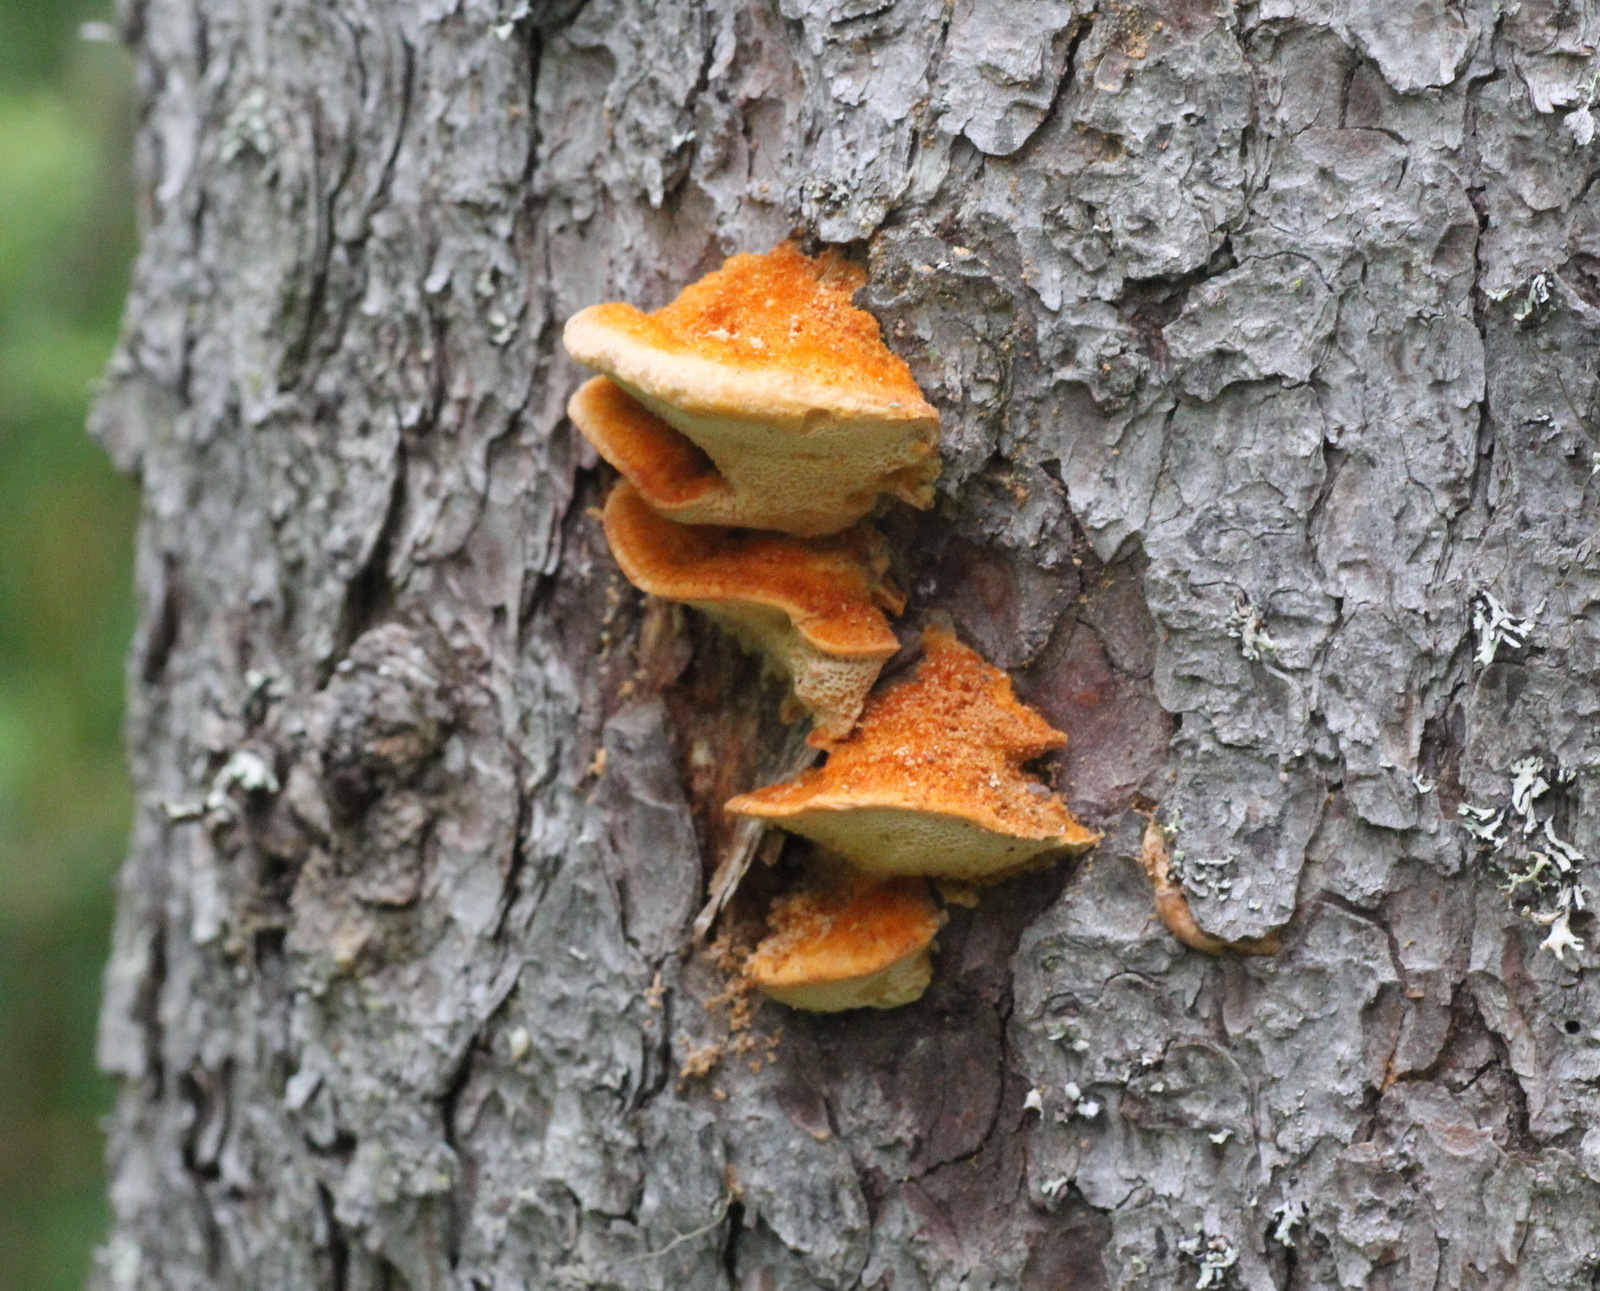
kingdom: Fungi
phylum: Basidiomycota
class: Agaricomycetes
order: Hymenochaetales
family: Hymenochaetaceae
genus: Inocutis
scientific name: Inocutis rheades
